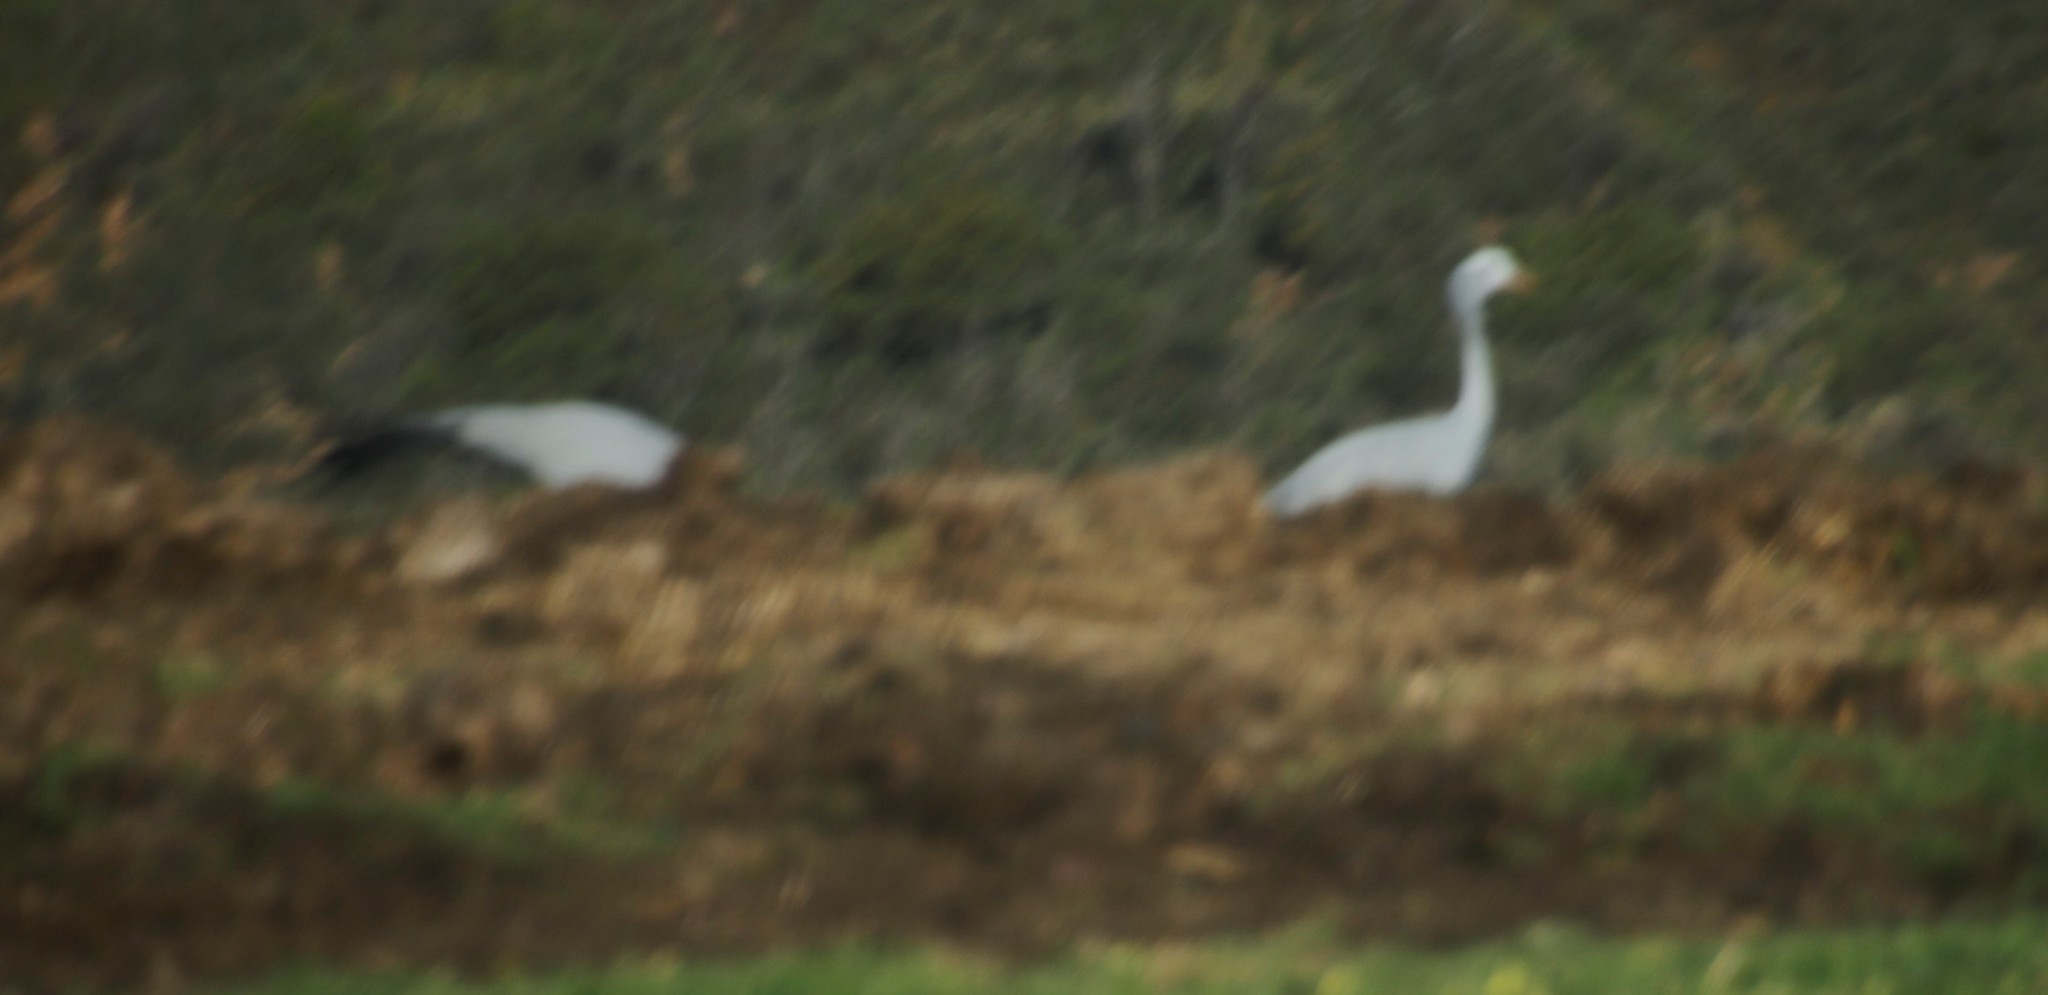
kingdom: Animalia
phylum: Chordata
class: Aves
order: Gruiformes
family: Gruidae
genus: Anthropoides
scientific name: Anthropoides paradiseus
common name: Blue crane
